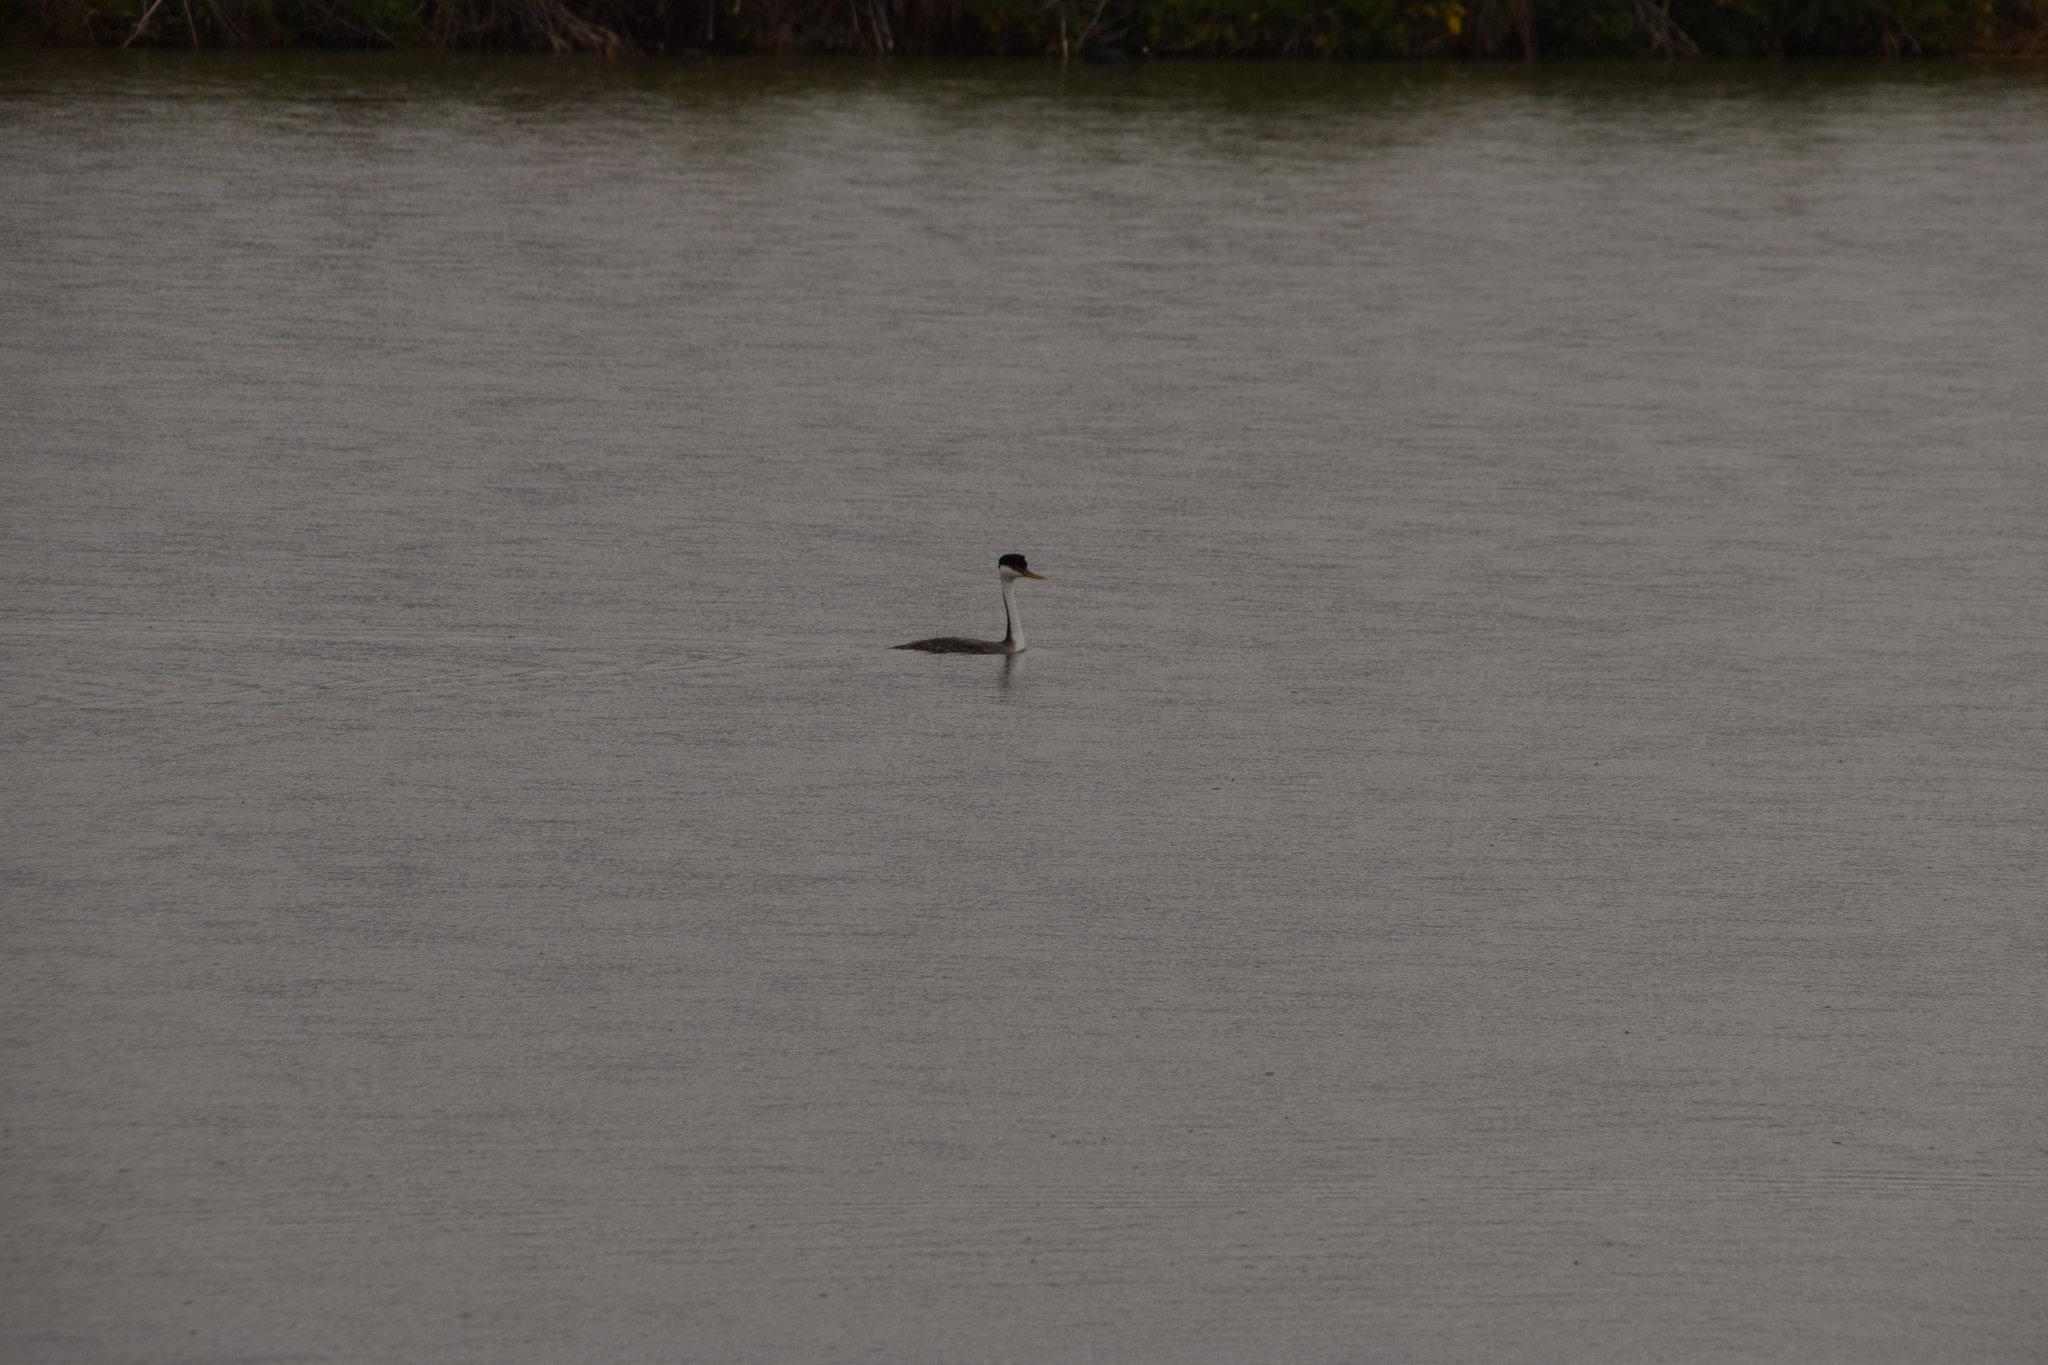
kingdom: Animalia
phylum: Chordata
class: Aves
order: Podicipediformes
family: Podicipedidae
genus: Aechmophorus
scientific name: Aechmophorus occidentalis
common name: Western grebe
